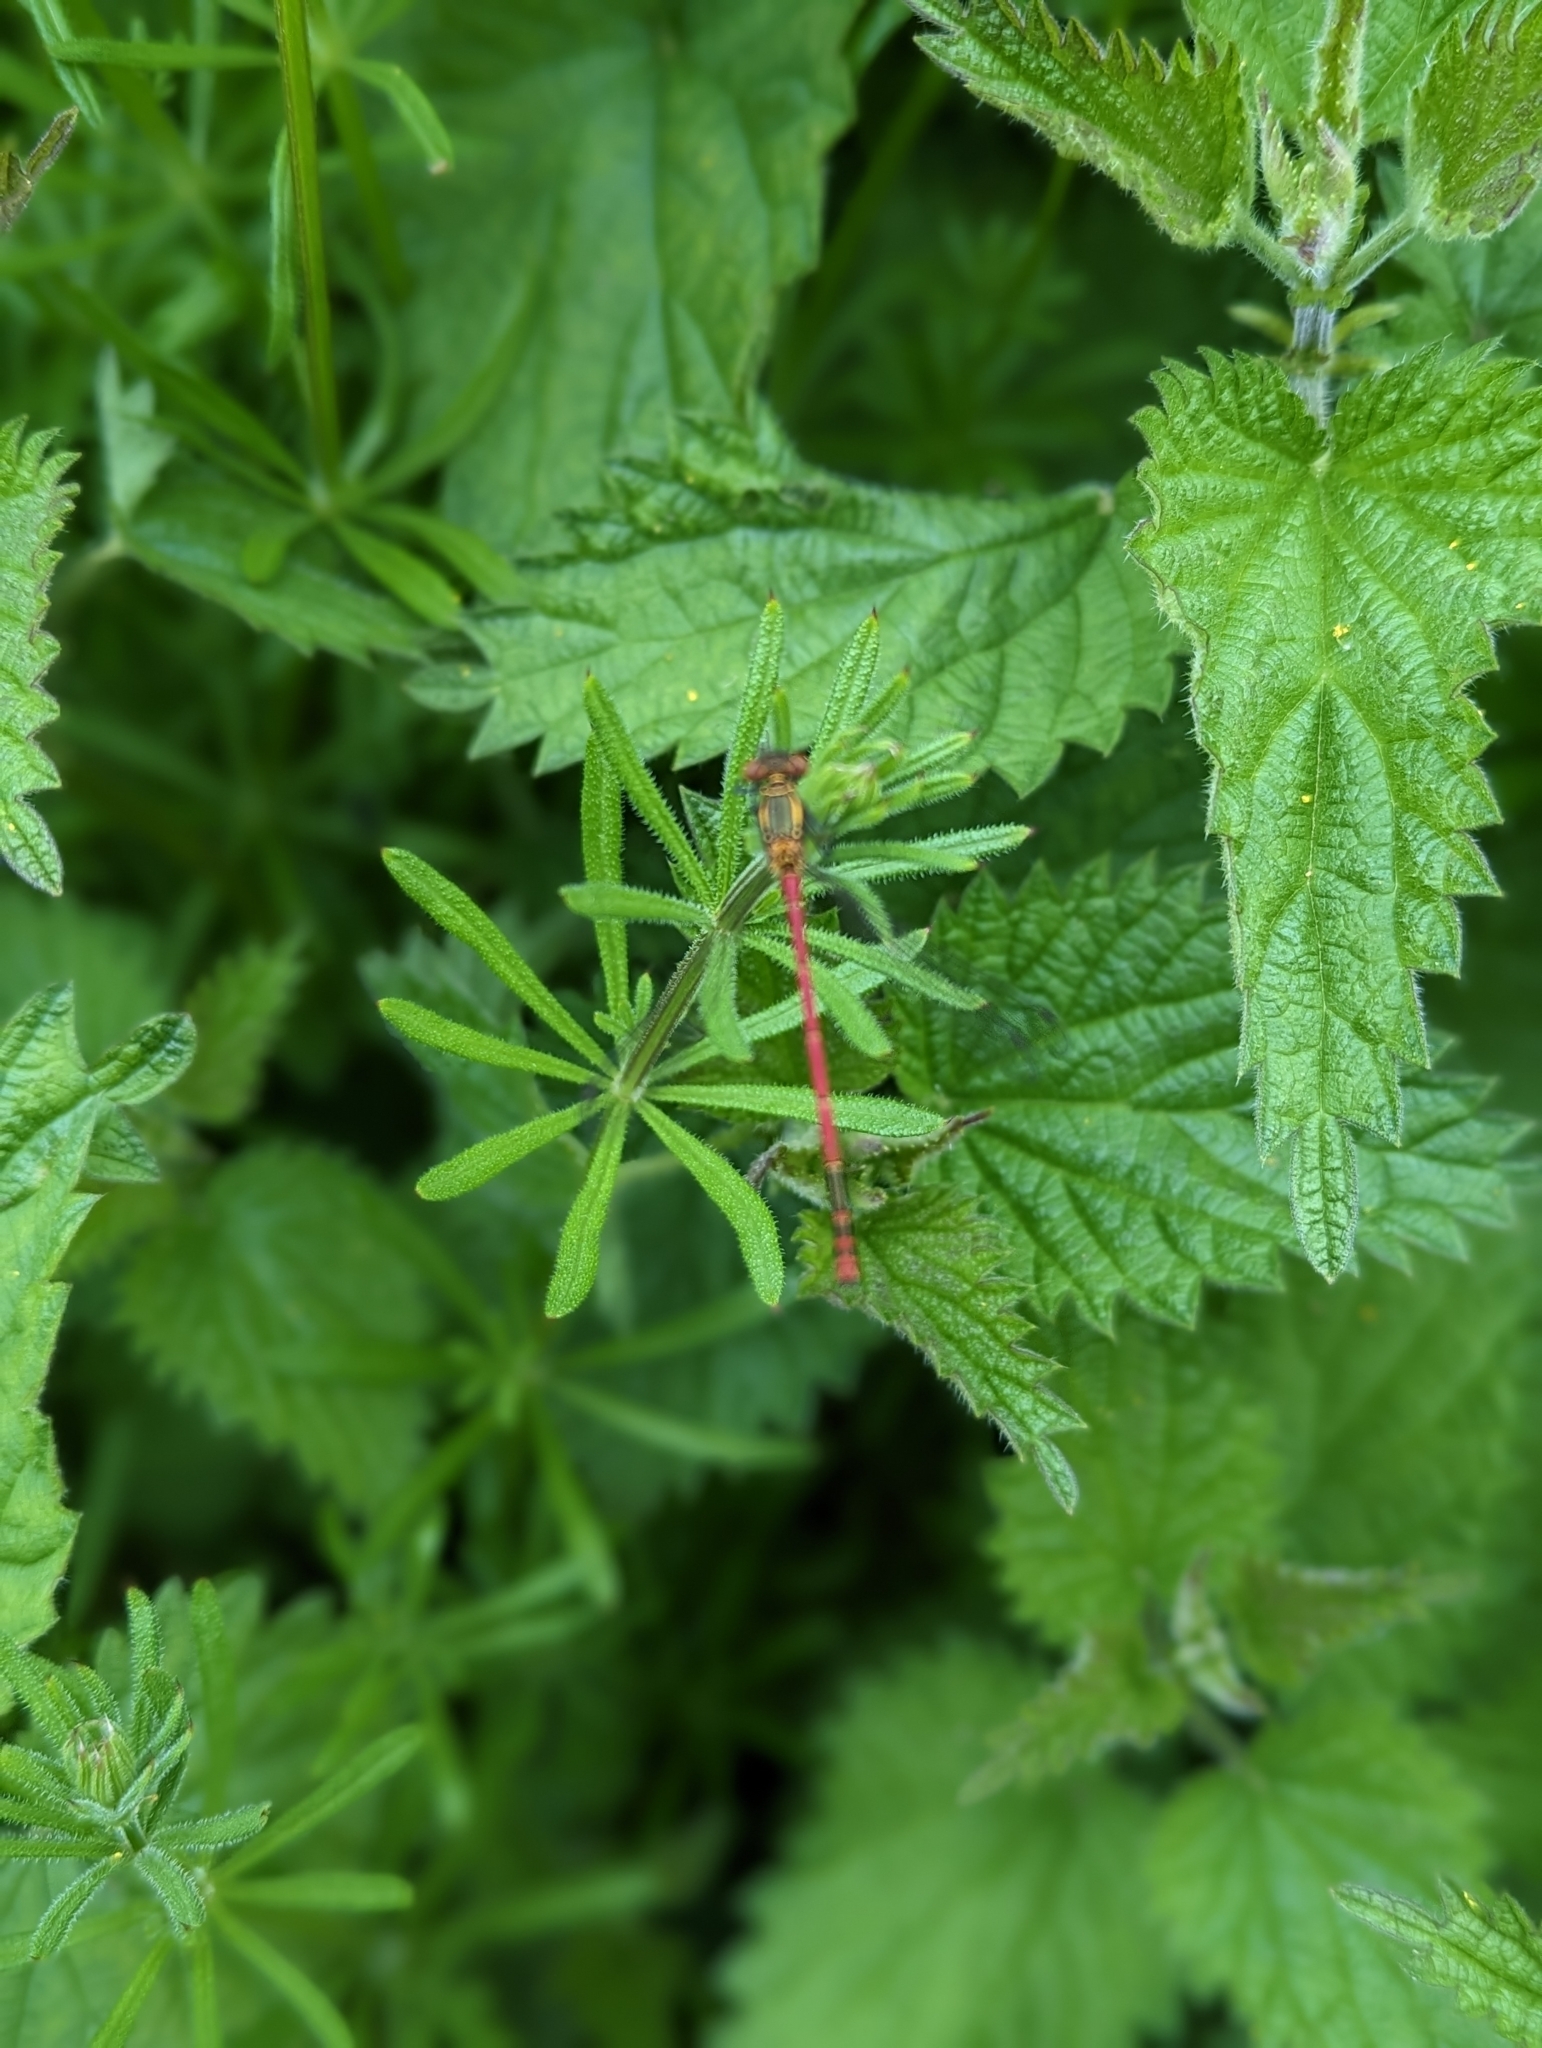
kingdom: Animalia
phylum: Arthropoda
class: Insecta
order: Odonata
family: Coenagrionidae
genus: Pyrrhosoma
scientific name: Pyrrhosoma nymphula
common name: Large red damsel
